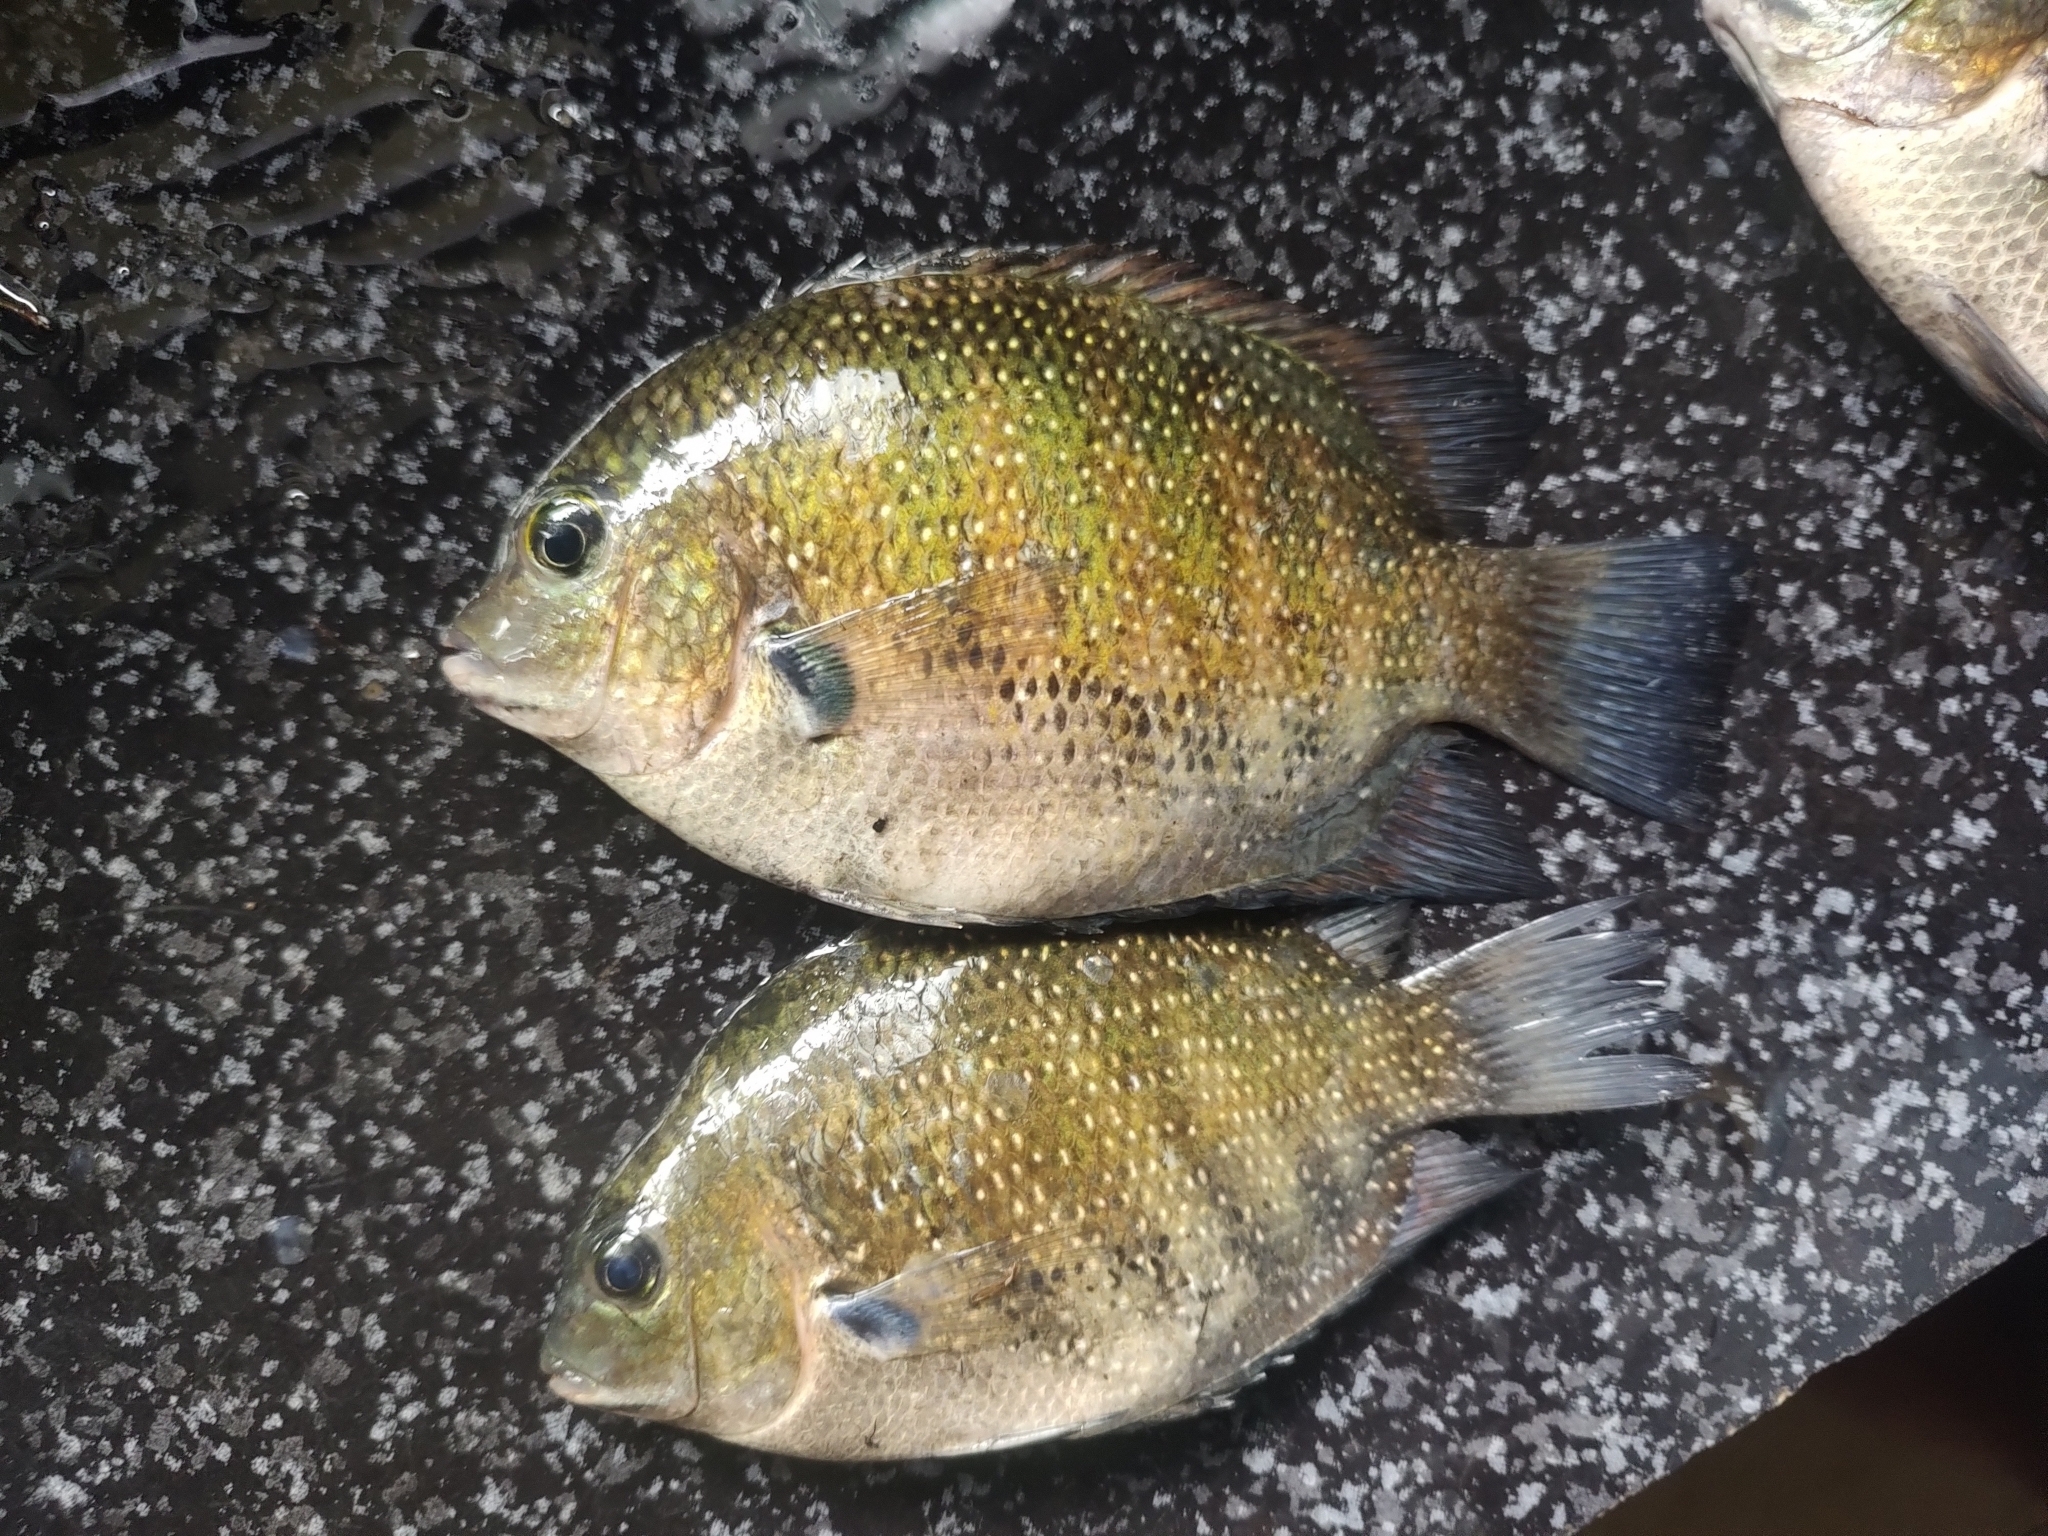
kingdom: Animalia
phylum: Chordata
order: Perciformes
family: Cichlidae
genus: Etroplus
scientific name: Etroplus suratensis
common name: Green chromide
